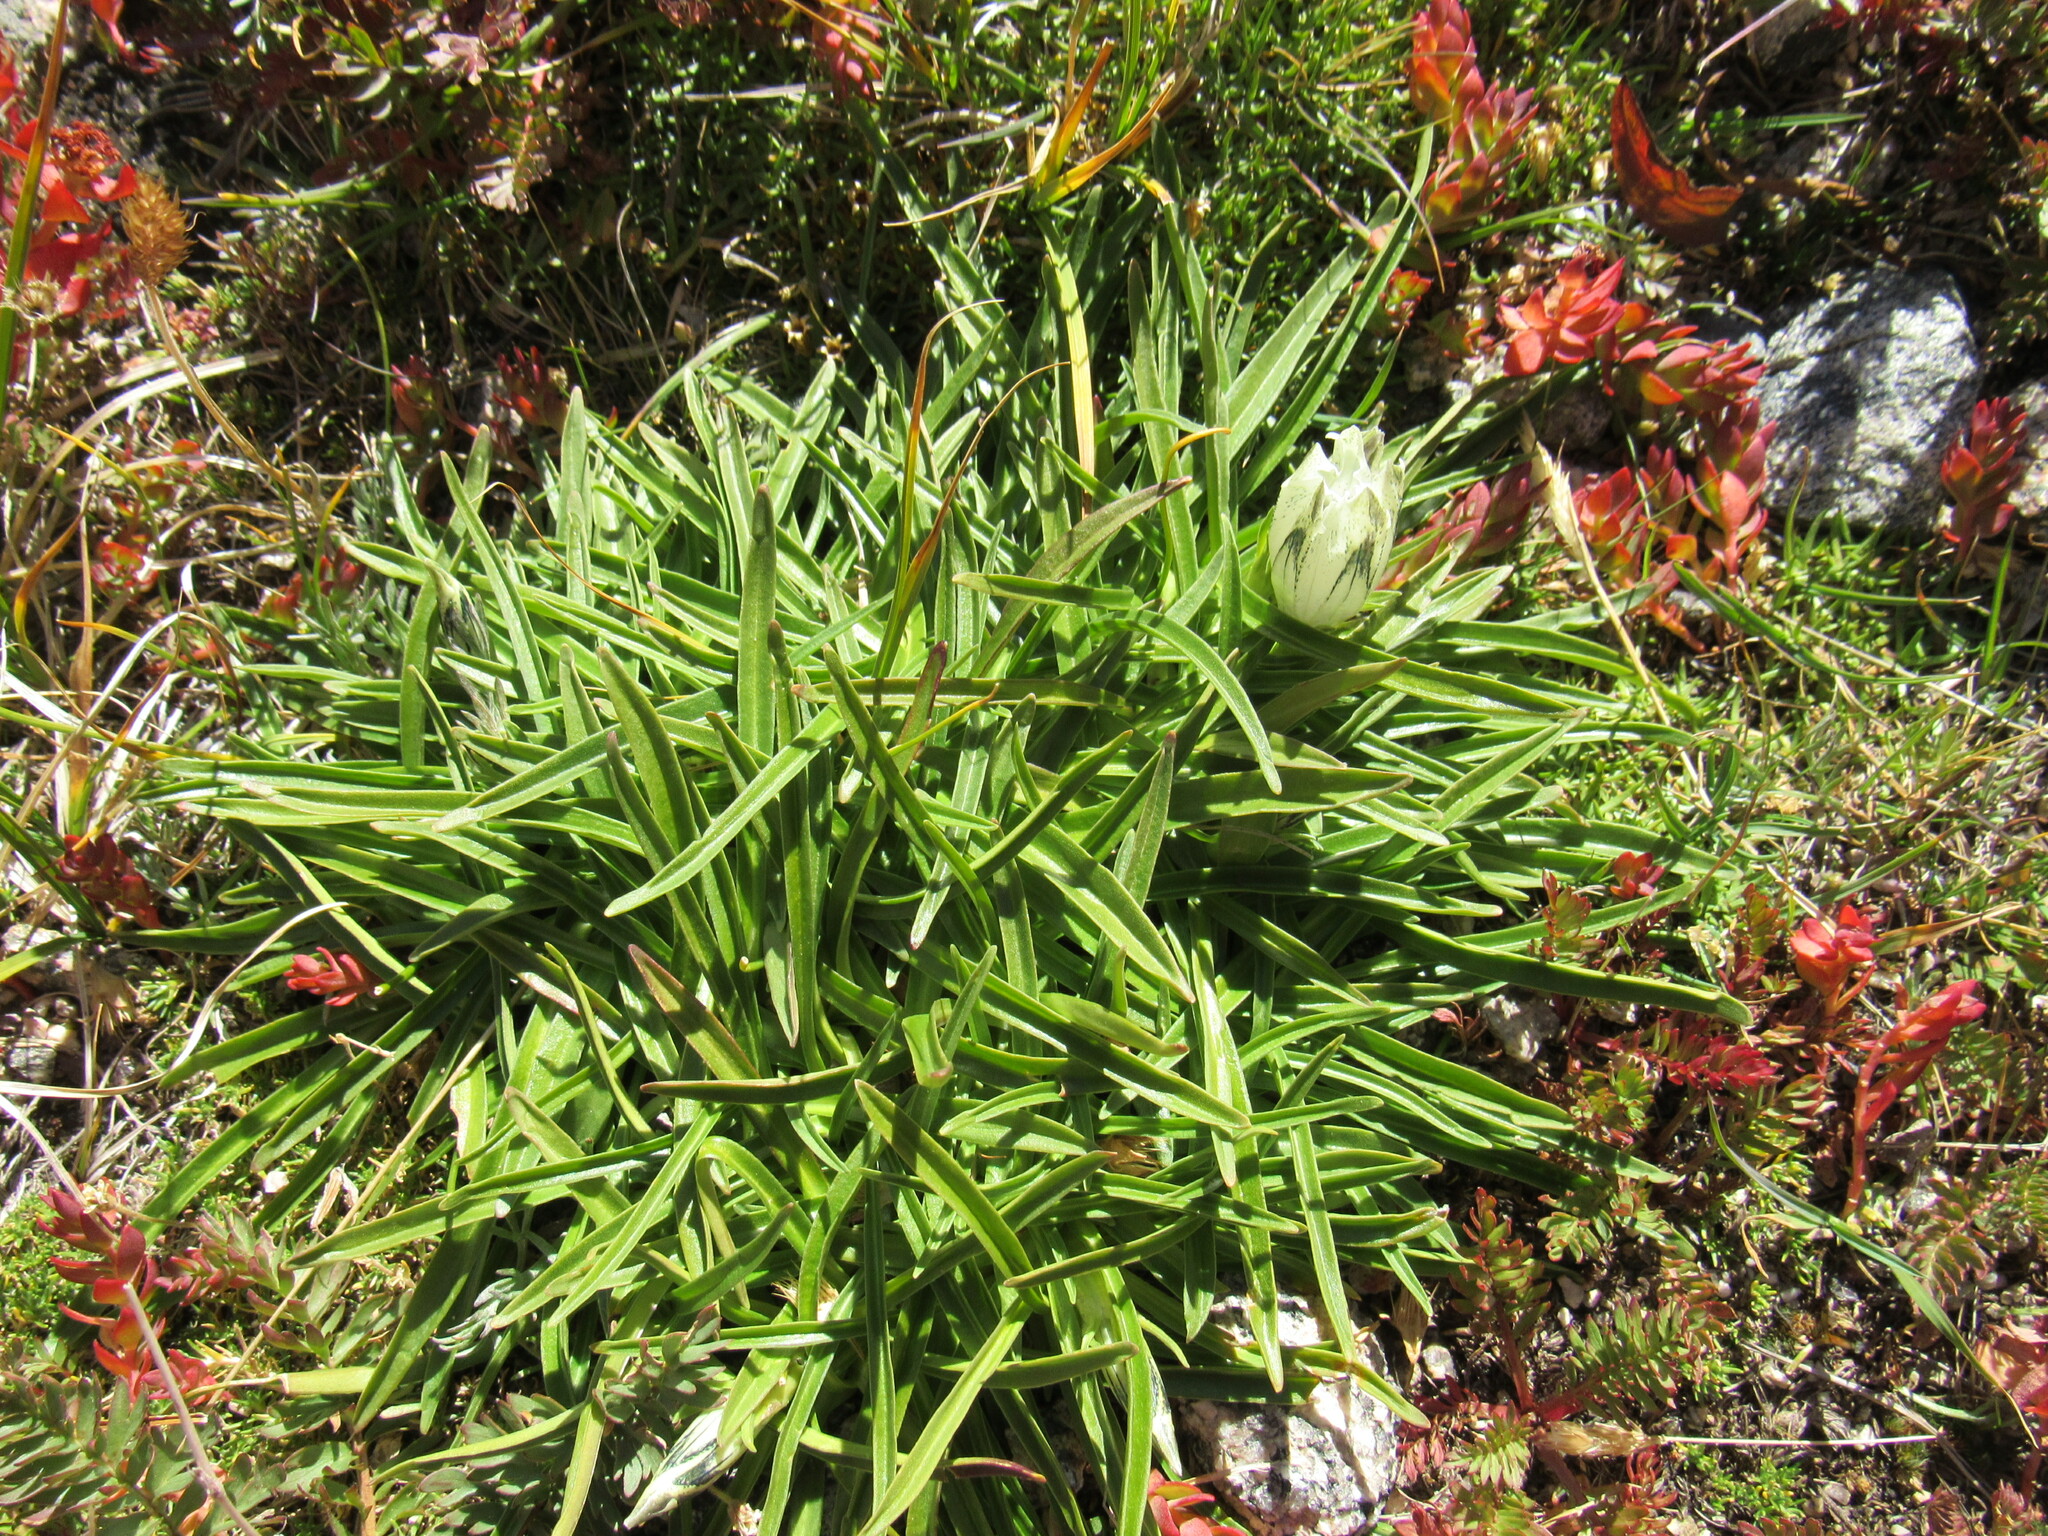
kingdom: Plantae
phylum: Tracheophyta
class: Magnoliopsida
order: Gentianales
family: Gentianaceae
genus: Gentiana
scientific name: Gentiana algida
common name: Arctic gentian
